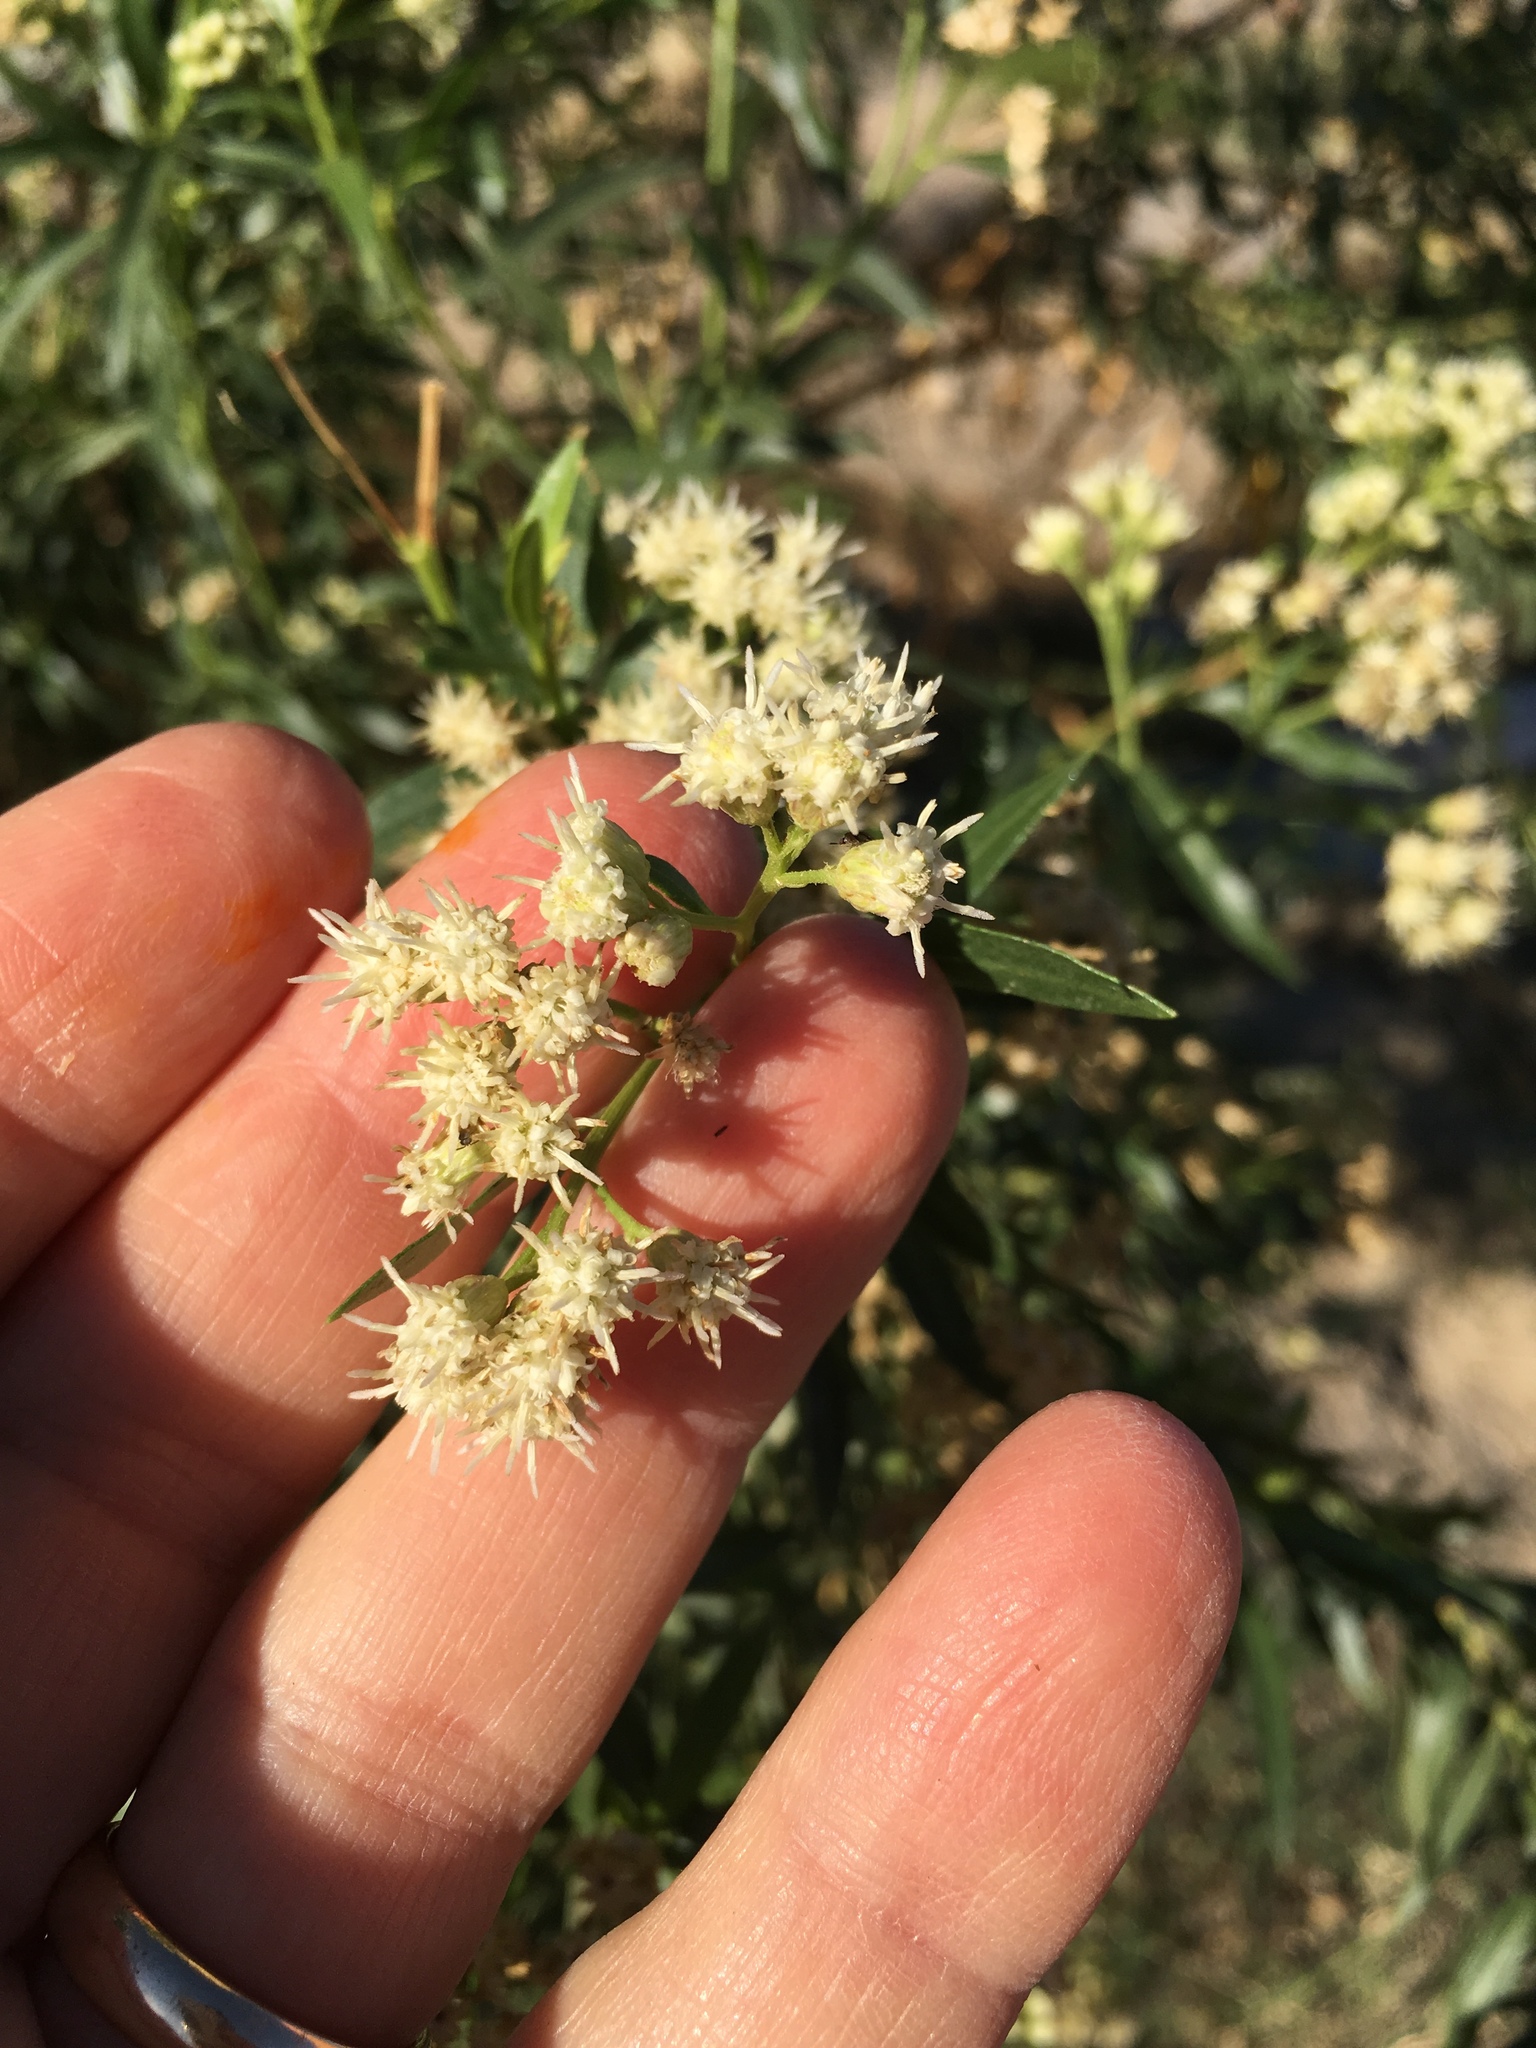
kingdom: Plantae
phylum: Tracheophyta
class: Magnoliopsida
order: Asterales
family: Asteraceae
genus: Baccharis
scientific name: Baccharis salicifolia
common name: Sticky baccharis
